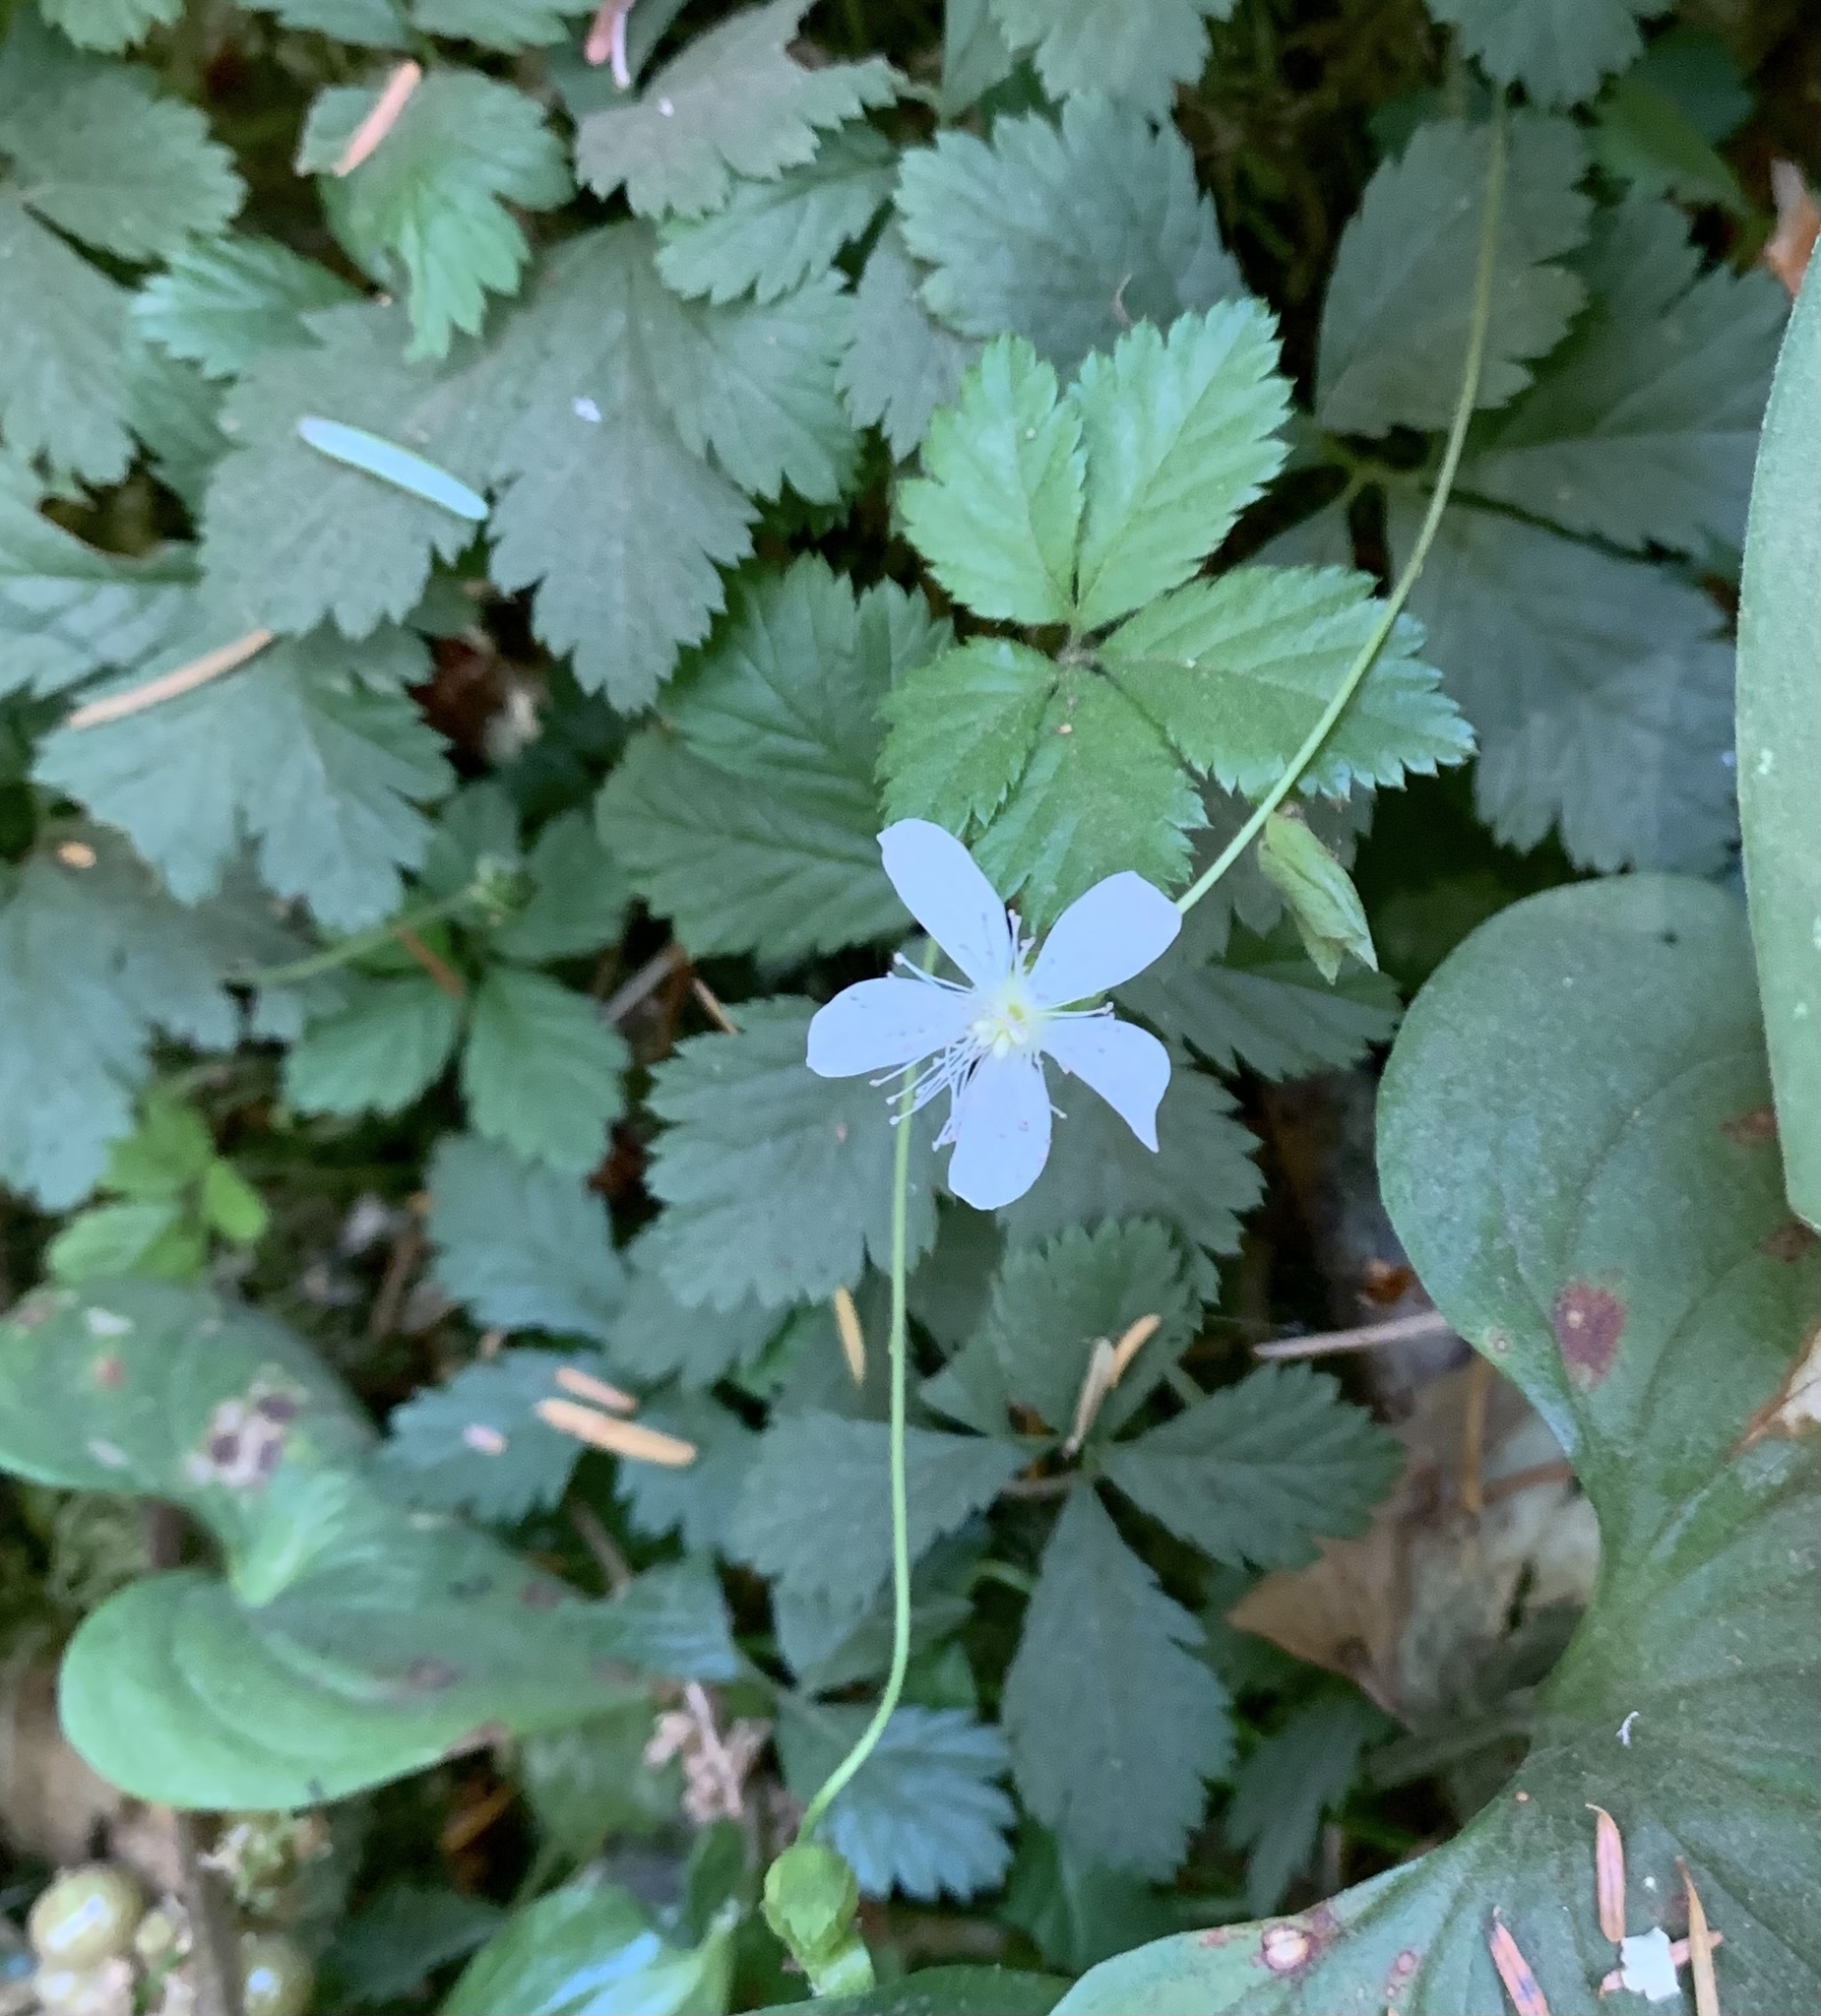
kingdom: Plantae
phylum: Tracheophyta
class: Magnoliopsida
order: Rosales
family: Rosaceae
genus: Rubus
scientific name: Rubus pedatus
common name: Creeping raspberry
